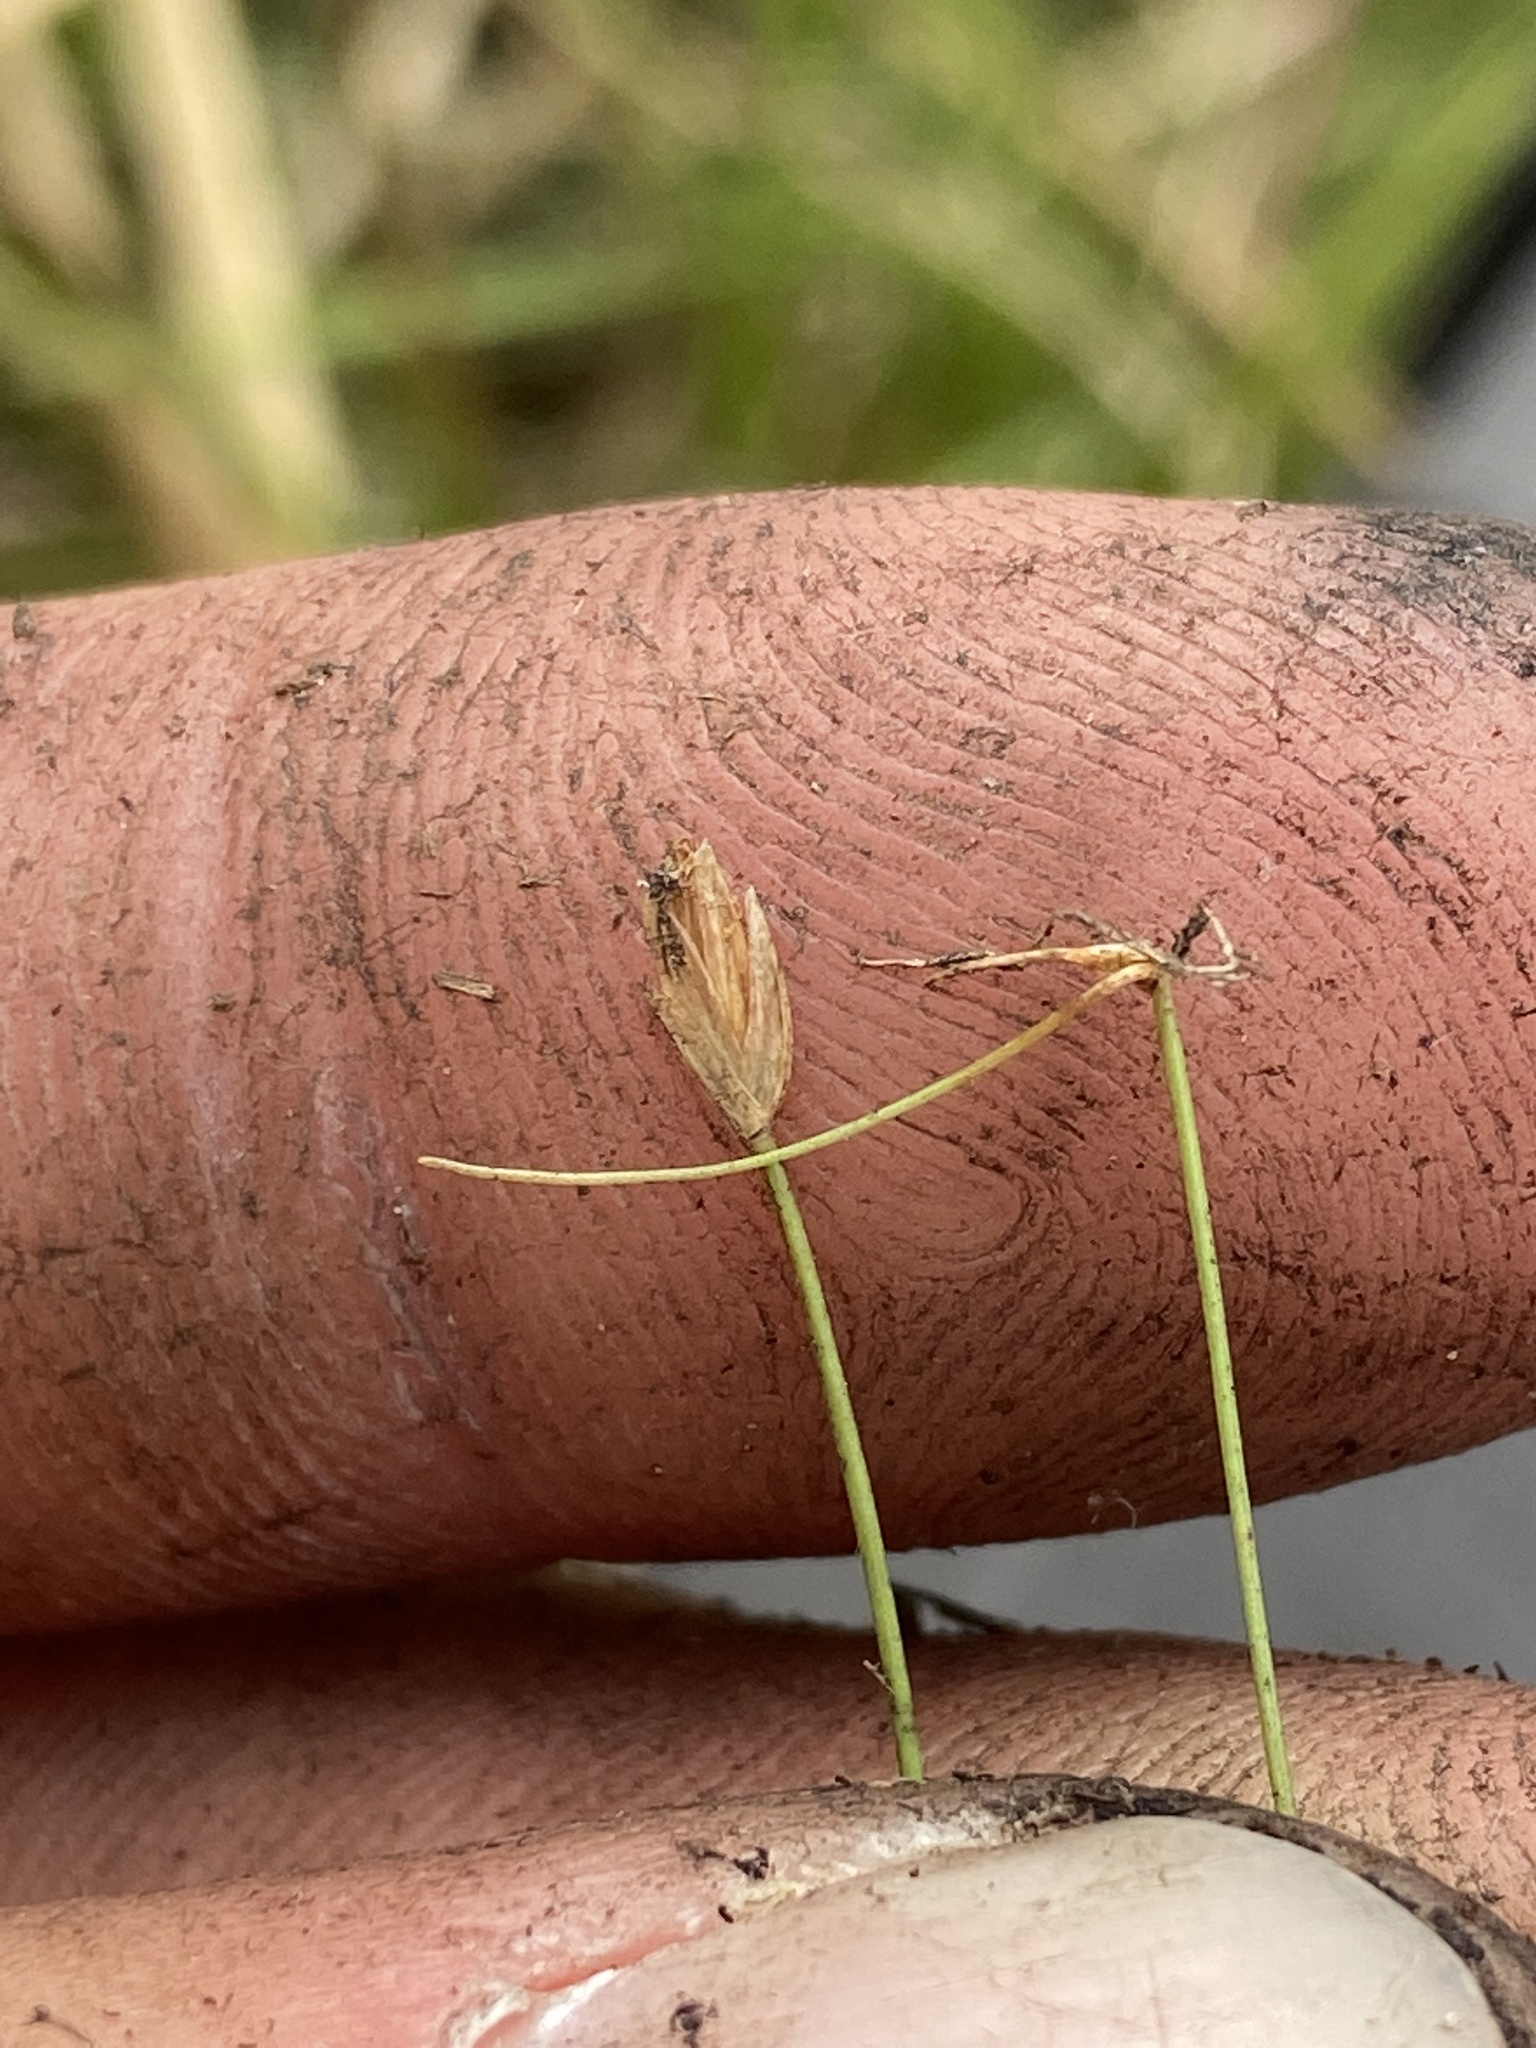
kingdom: Plantae
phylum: Tracheophyta
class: Liliopsida
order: Poales
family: Cyperaceae
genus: Eleocharis
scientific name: Eleocharis baldwinii
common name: Baldwin's spike-rush
